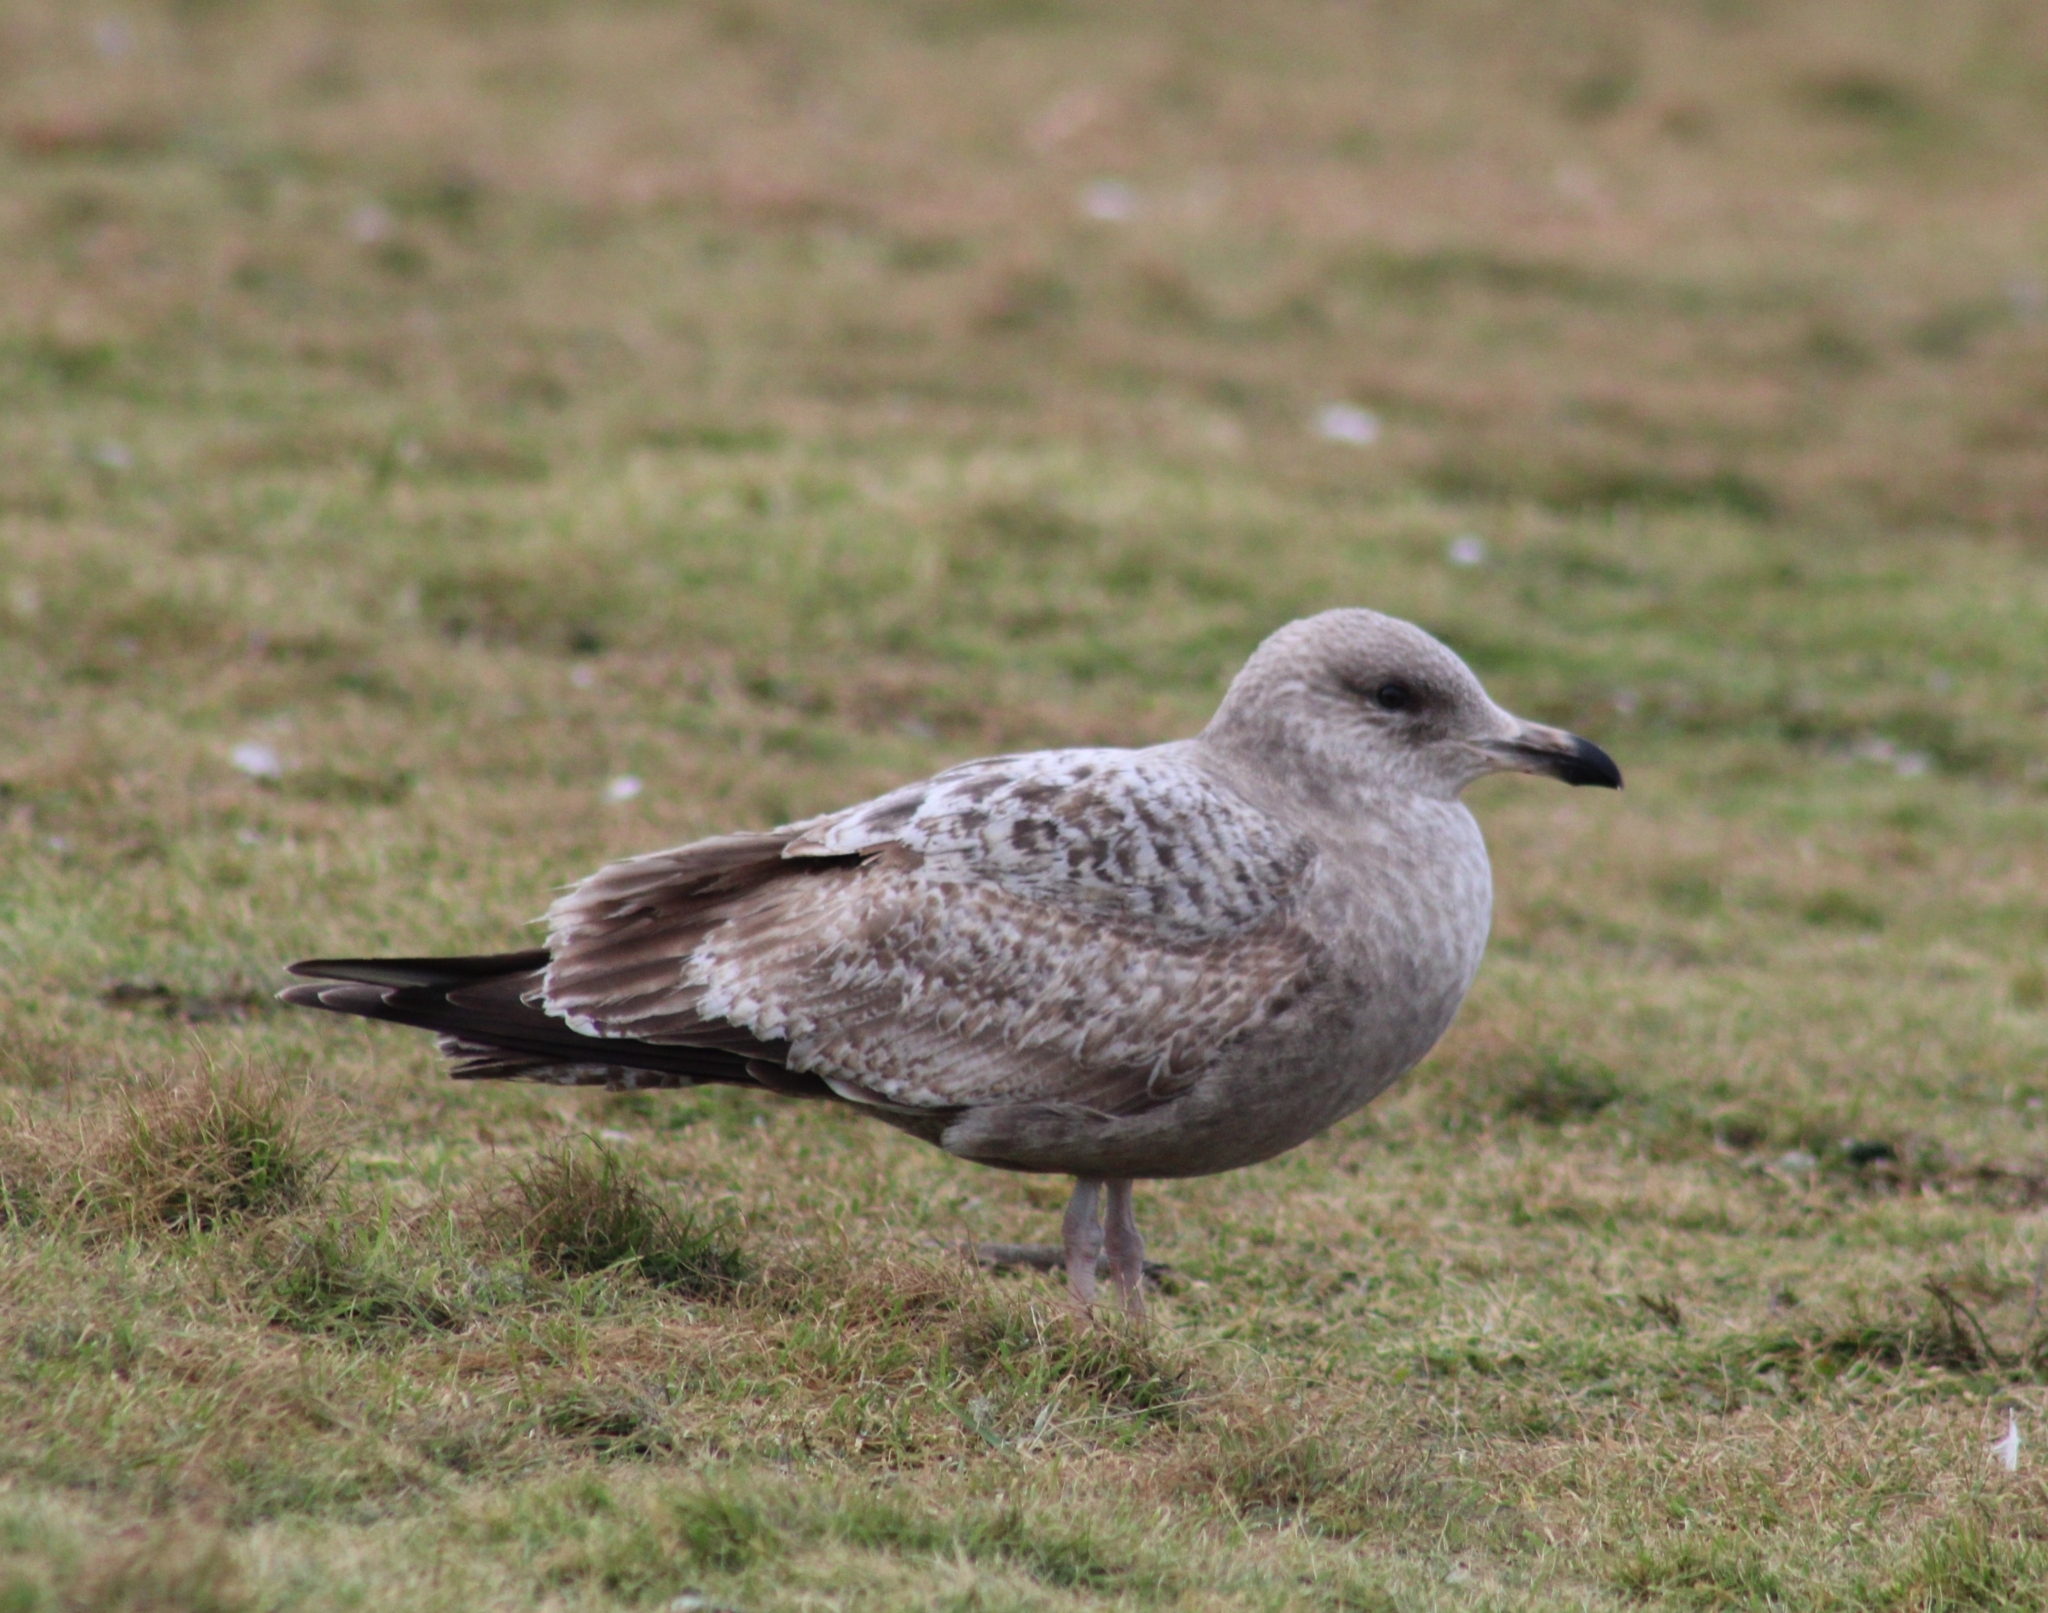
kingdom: Animalia
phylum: Chordata
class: Aves
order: Charadriiformes
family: Laridae
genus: Larus
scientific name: Larus argentatus
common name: Herring gull
